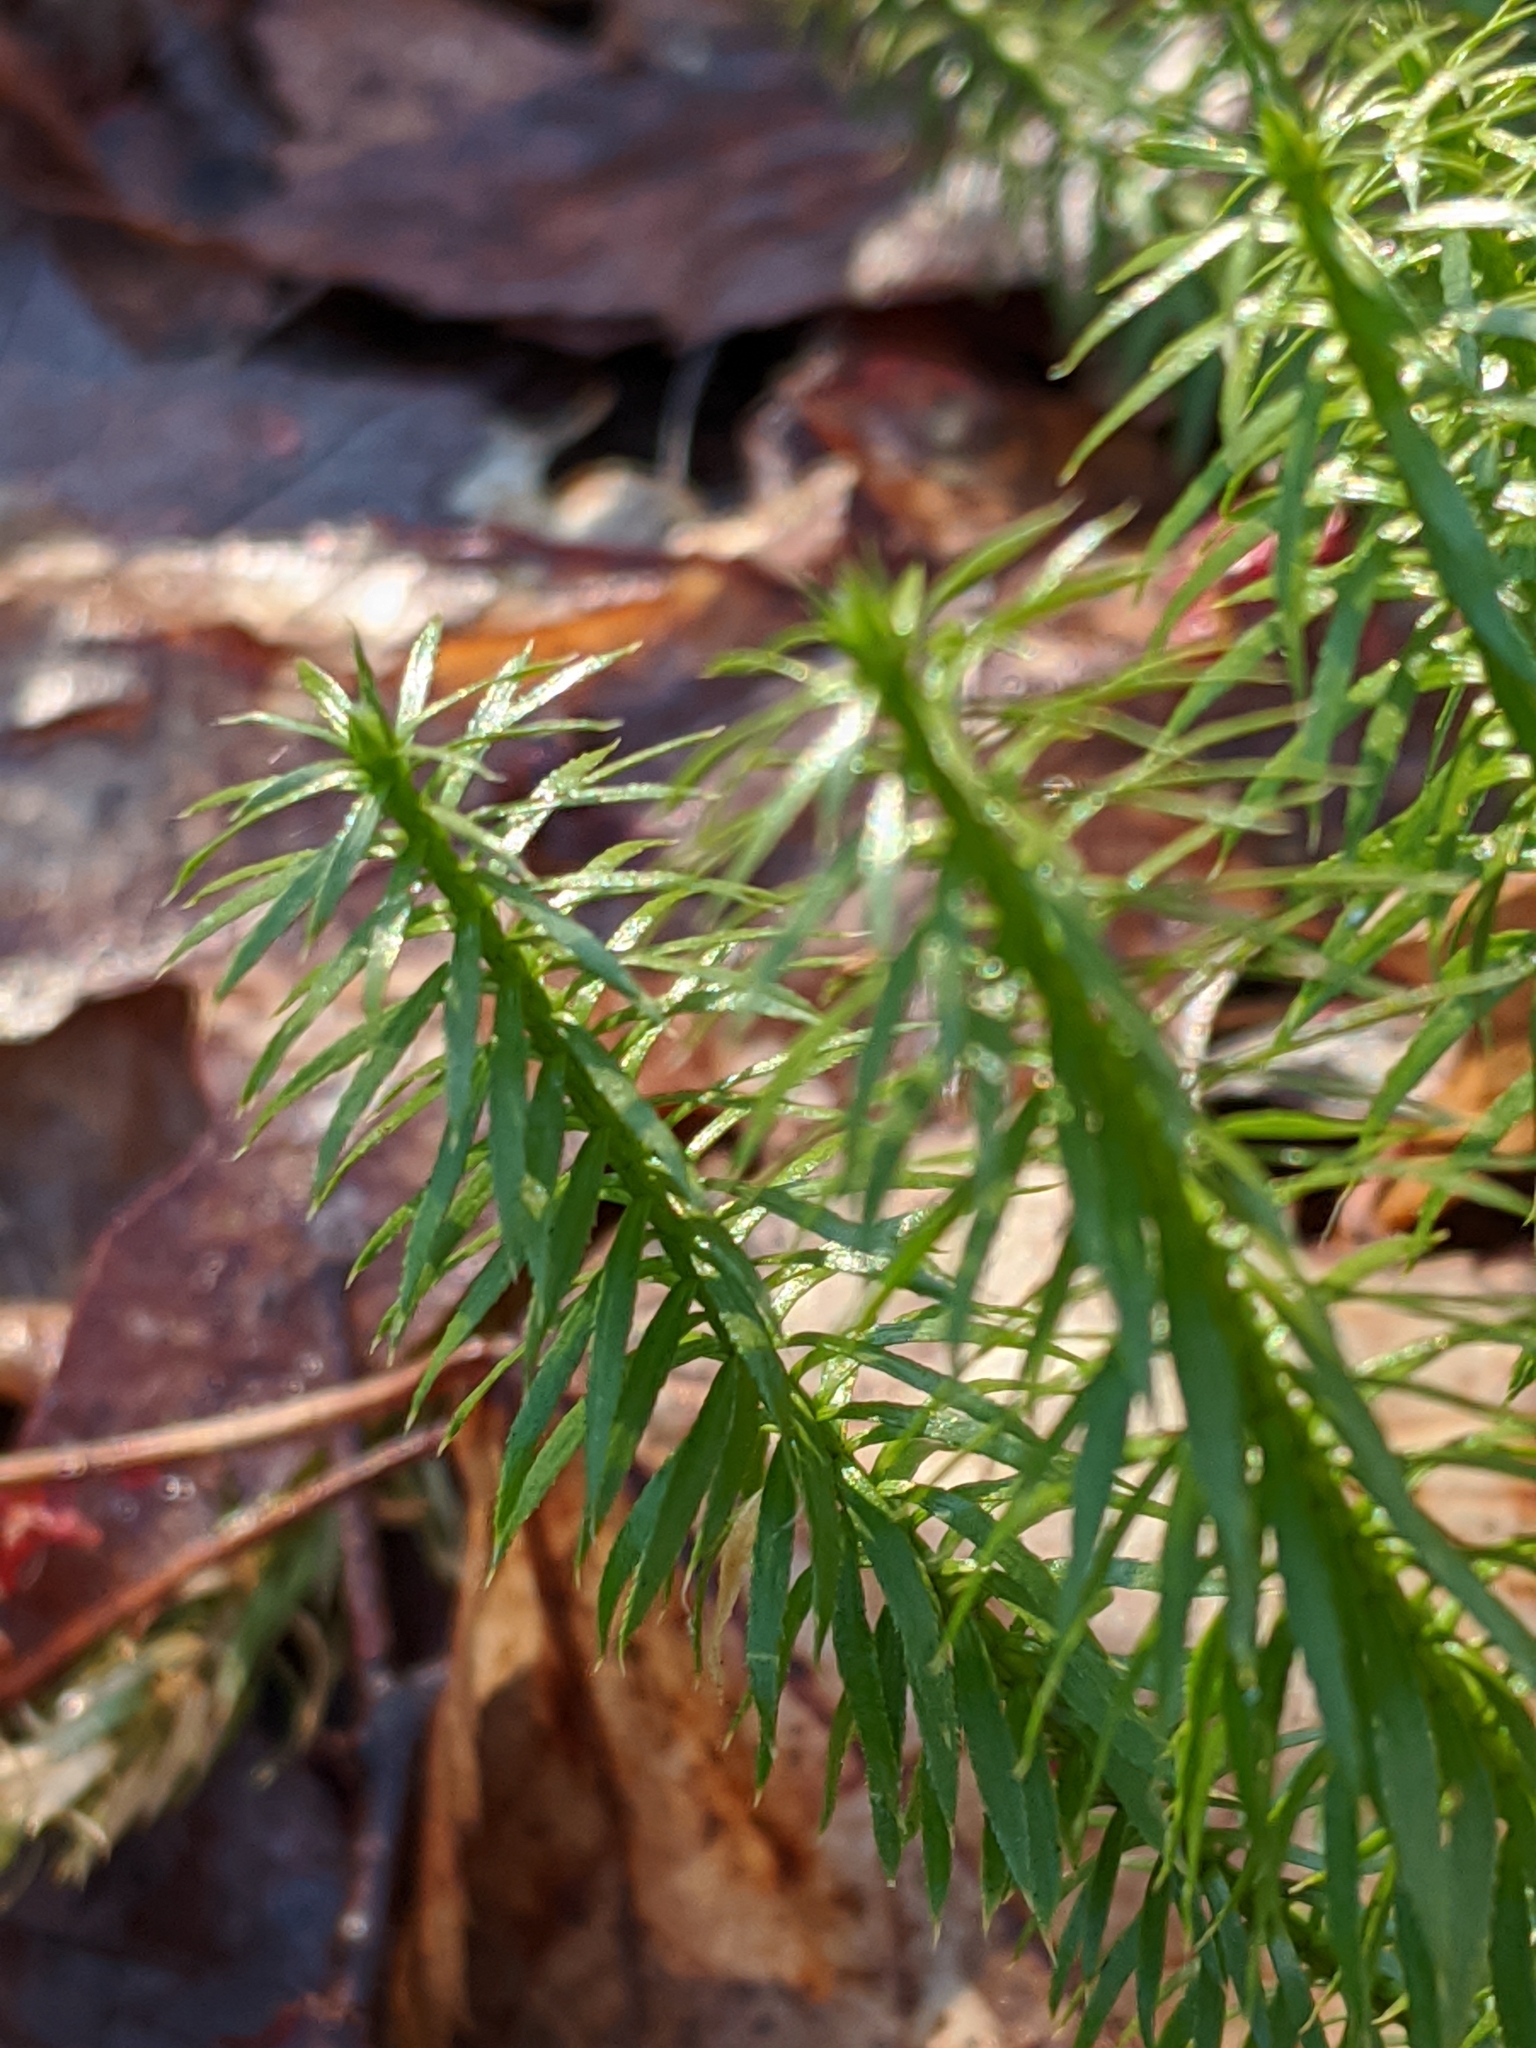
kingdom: Plantae
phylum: Tracheophyta
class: Lycopodiopsida
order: Lycopodiales
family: Lycopodiaceae
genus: Spinulum
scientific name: Spinulum annotinum
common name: Interrupted club-moss
